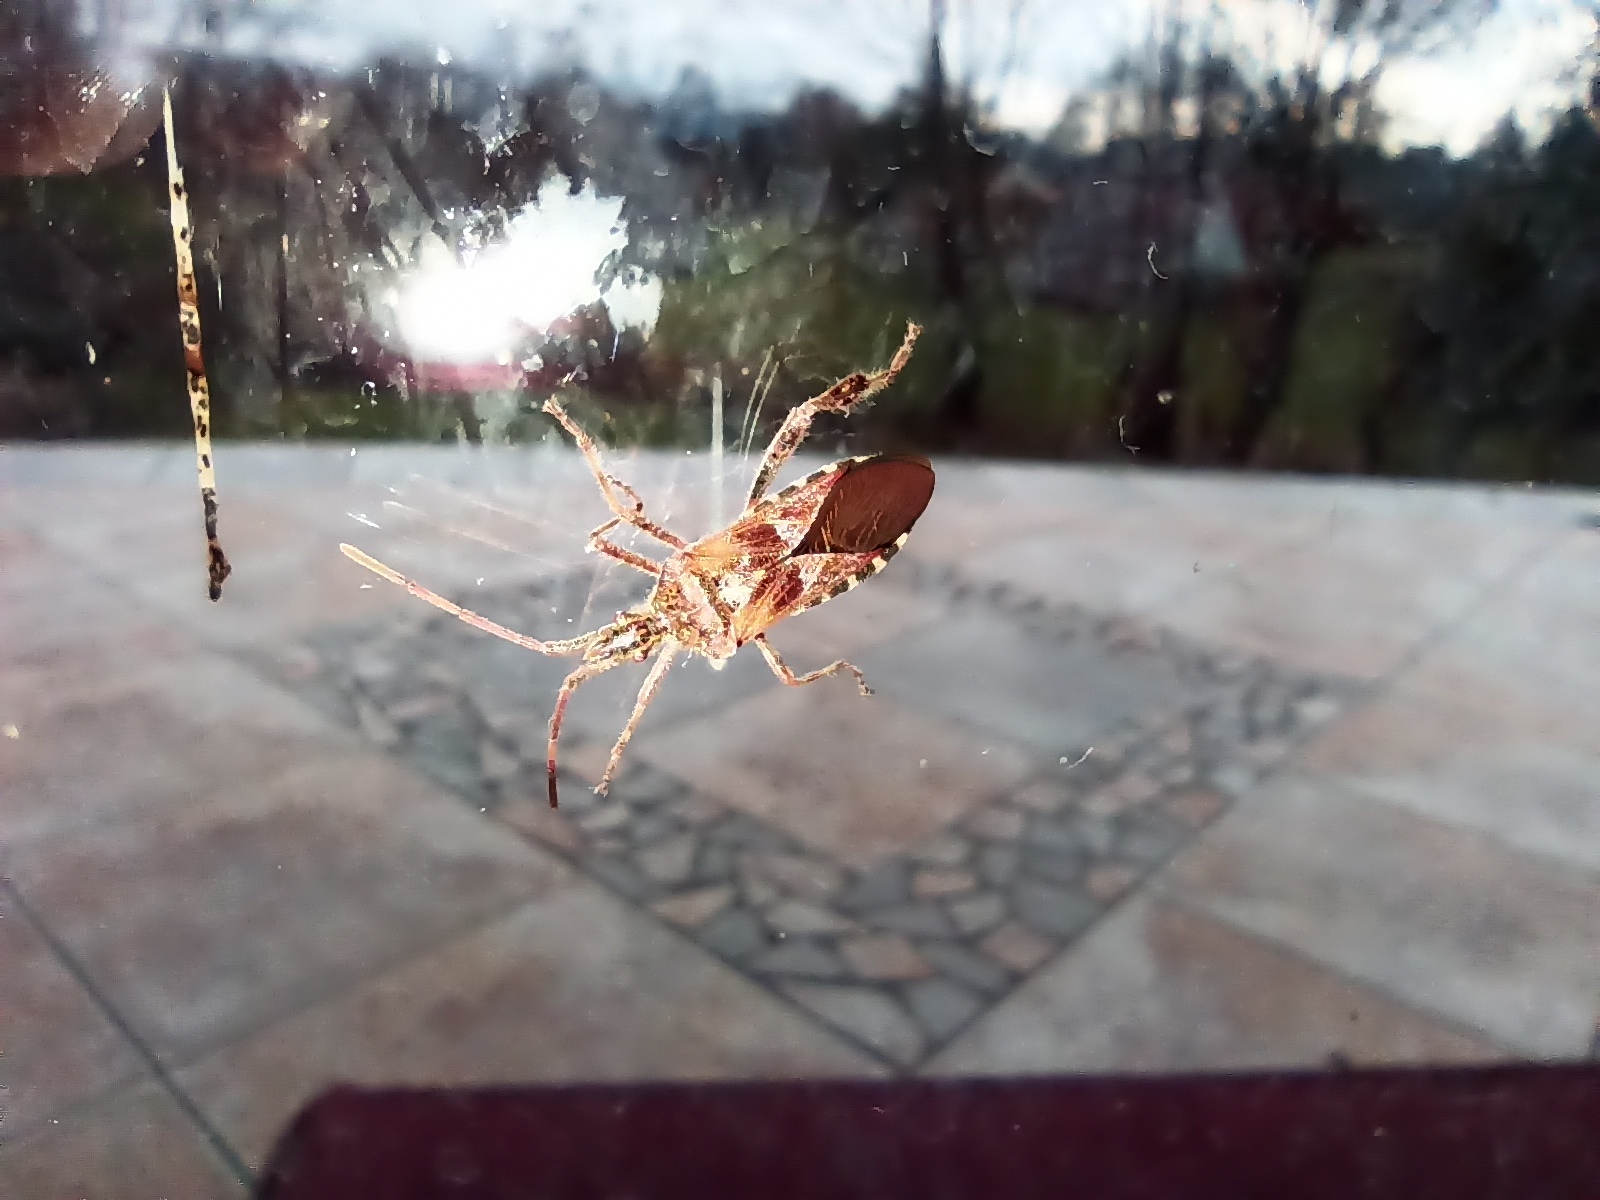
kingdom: Animalia
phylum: Arthropoda
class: Insecta
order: Hemiptera
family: Coreidae
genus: Leptoglossus
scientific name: Leptoglossus occidentalis
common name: Western conifer-seed bug
